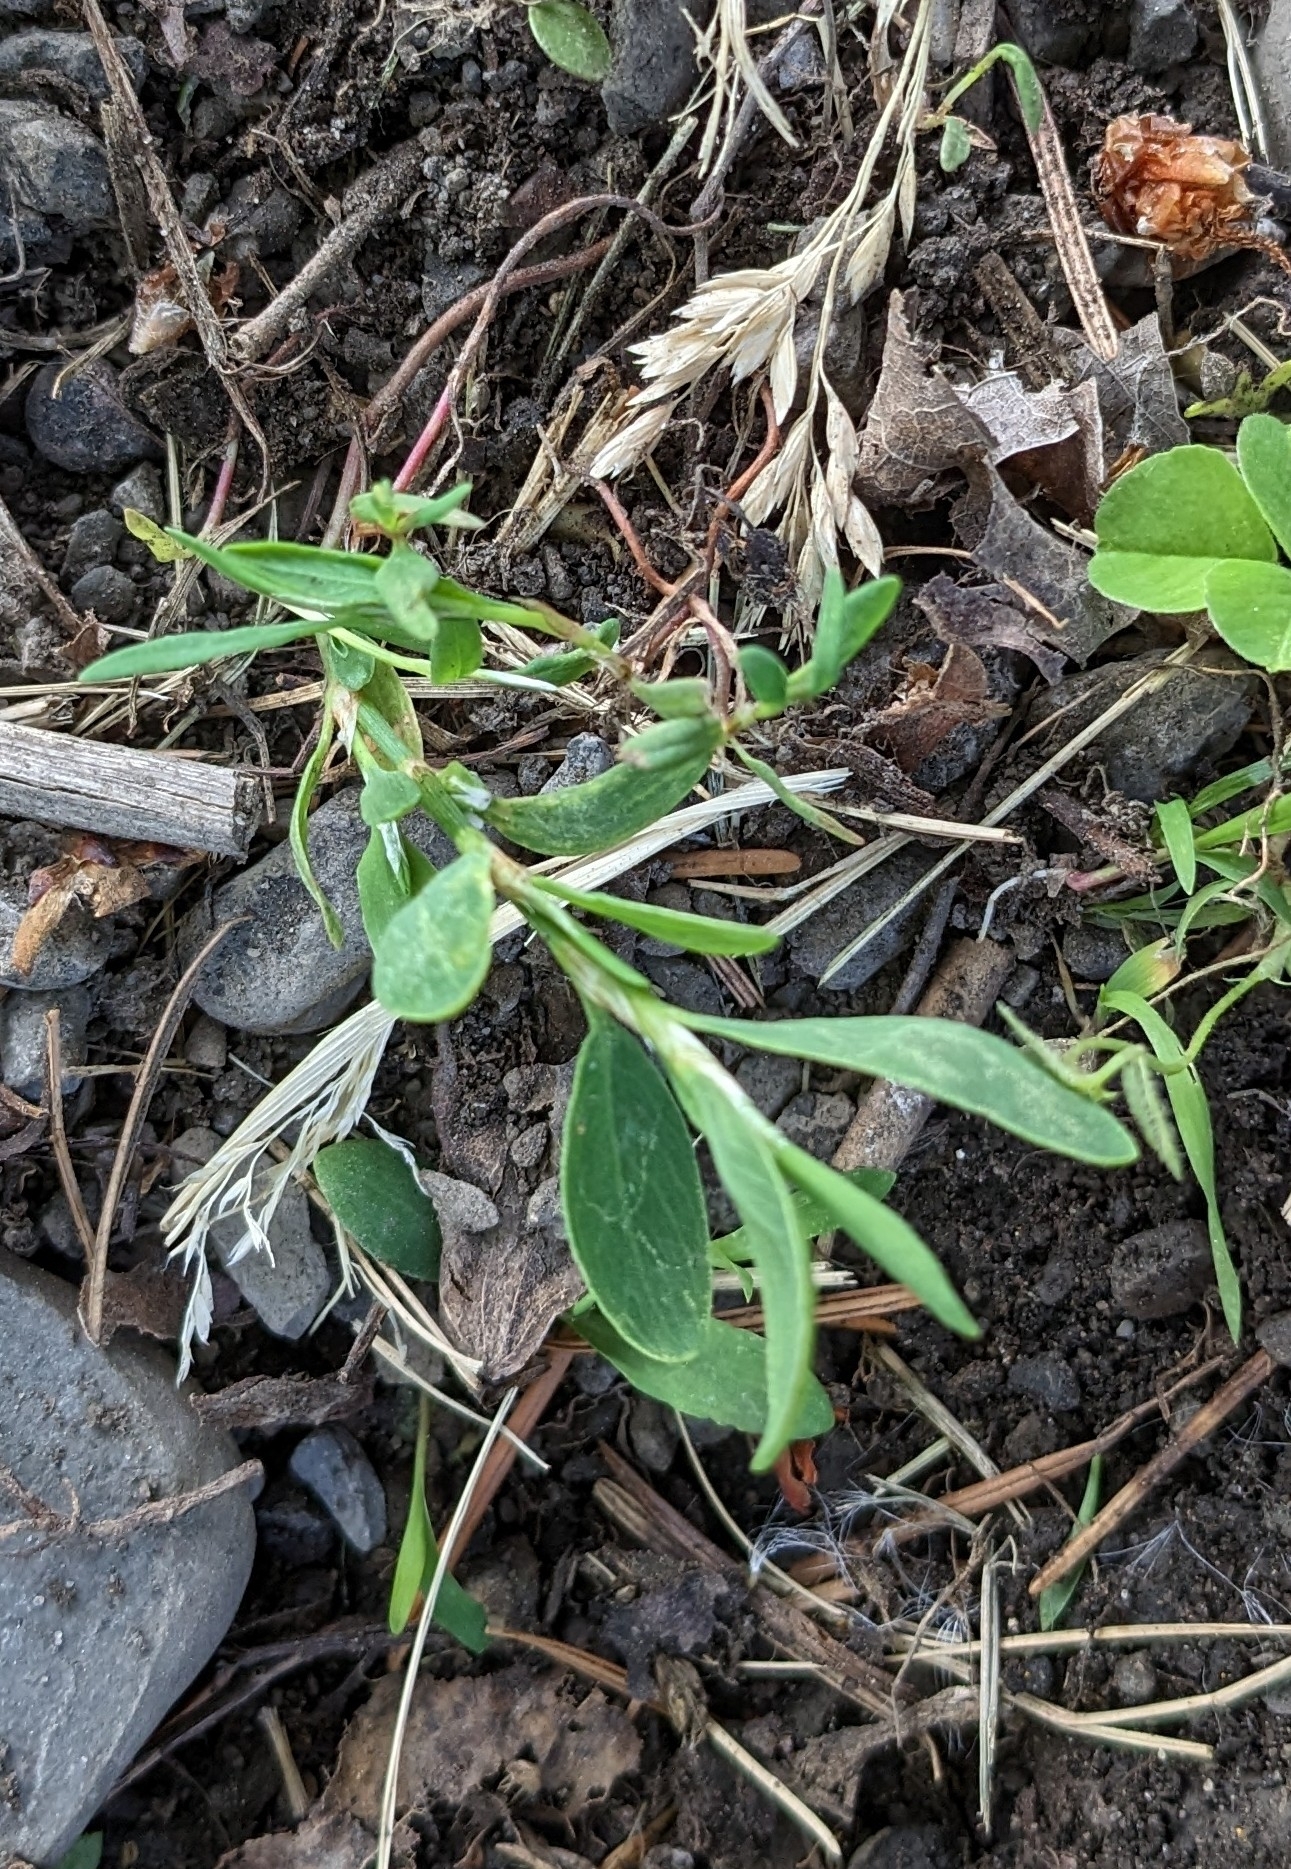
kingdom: Plantae
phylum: Tracheophyta
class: Magnoliopsida
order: Caryophyllales
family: Polygonaceae
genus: Polygonum
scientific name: Polygonum aviculare
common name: Prostrate knotweed
